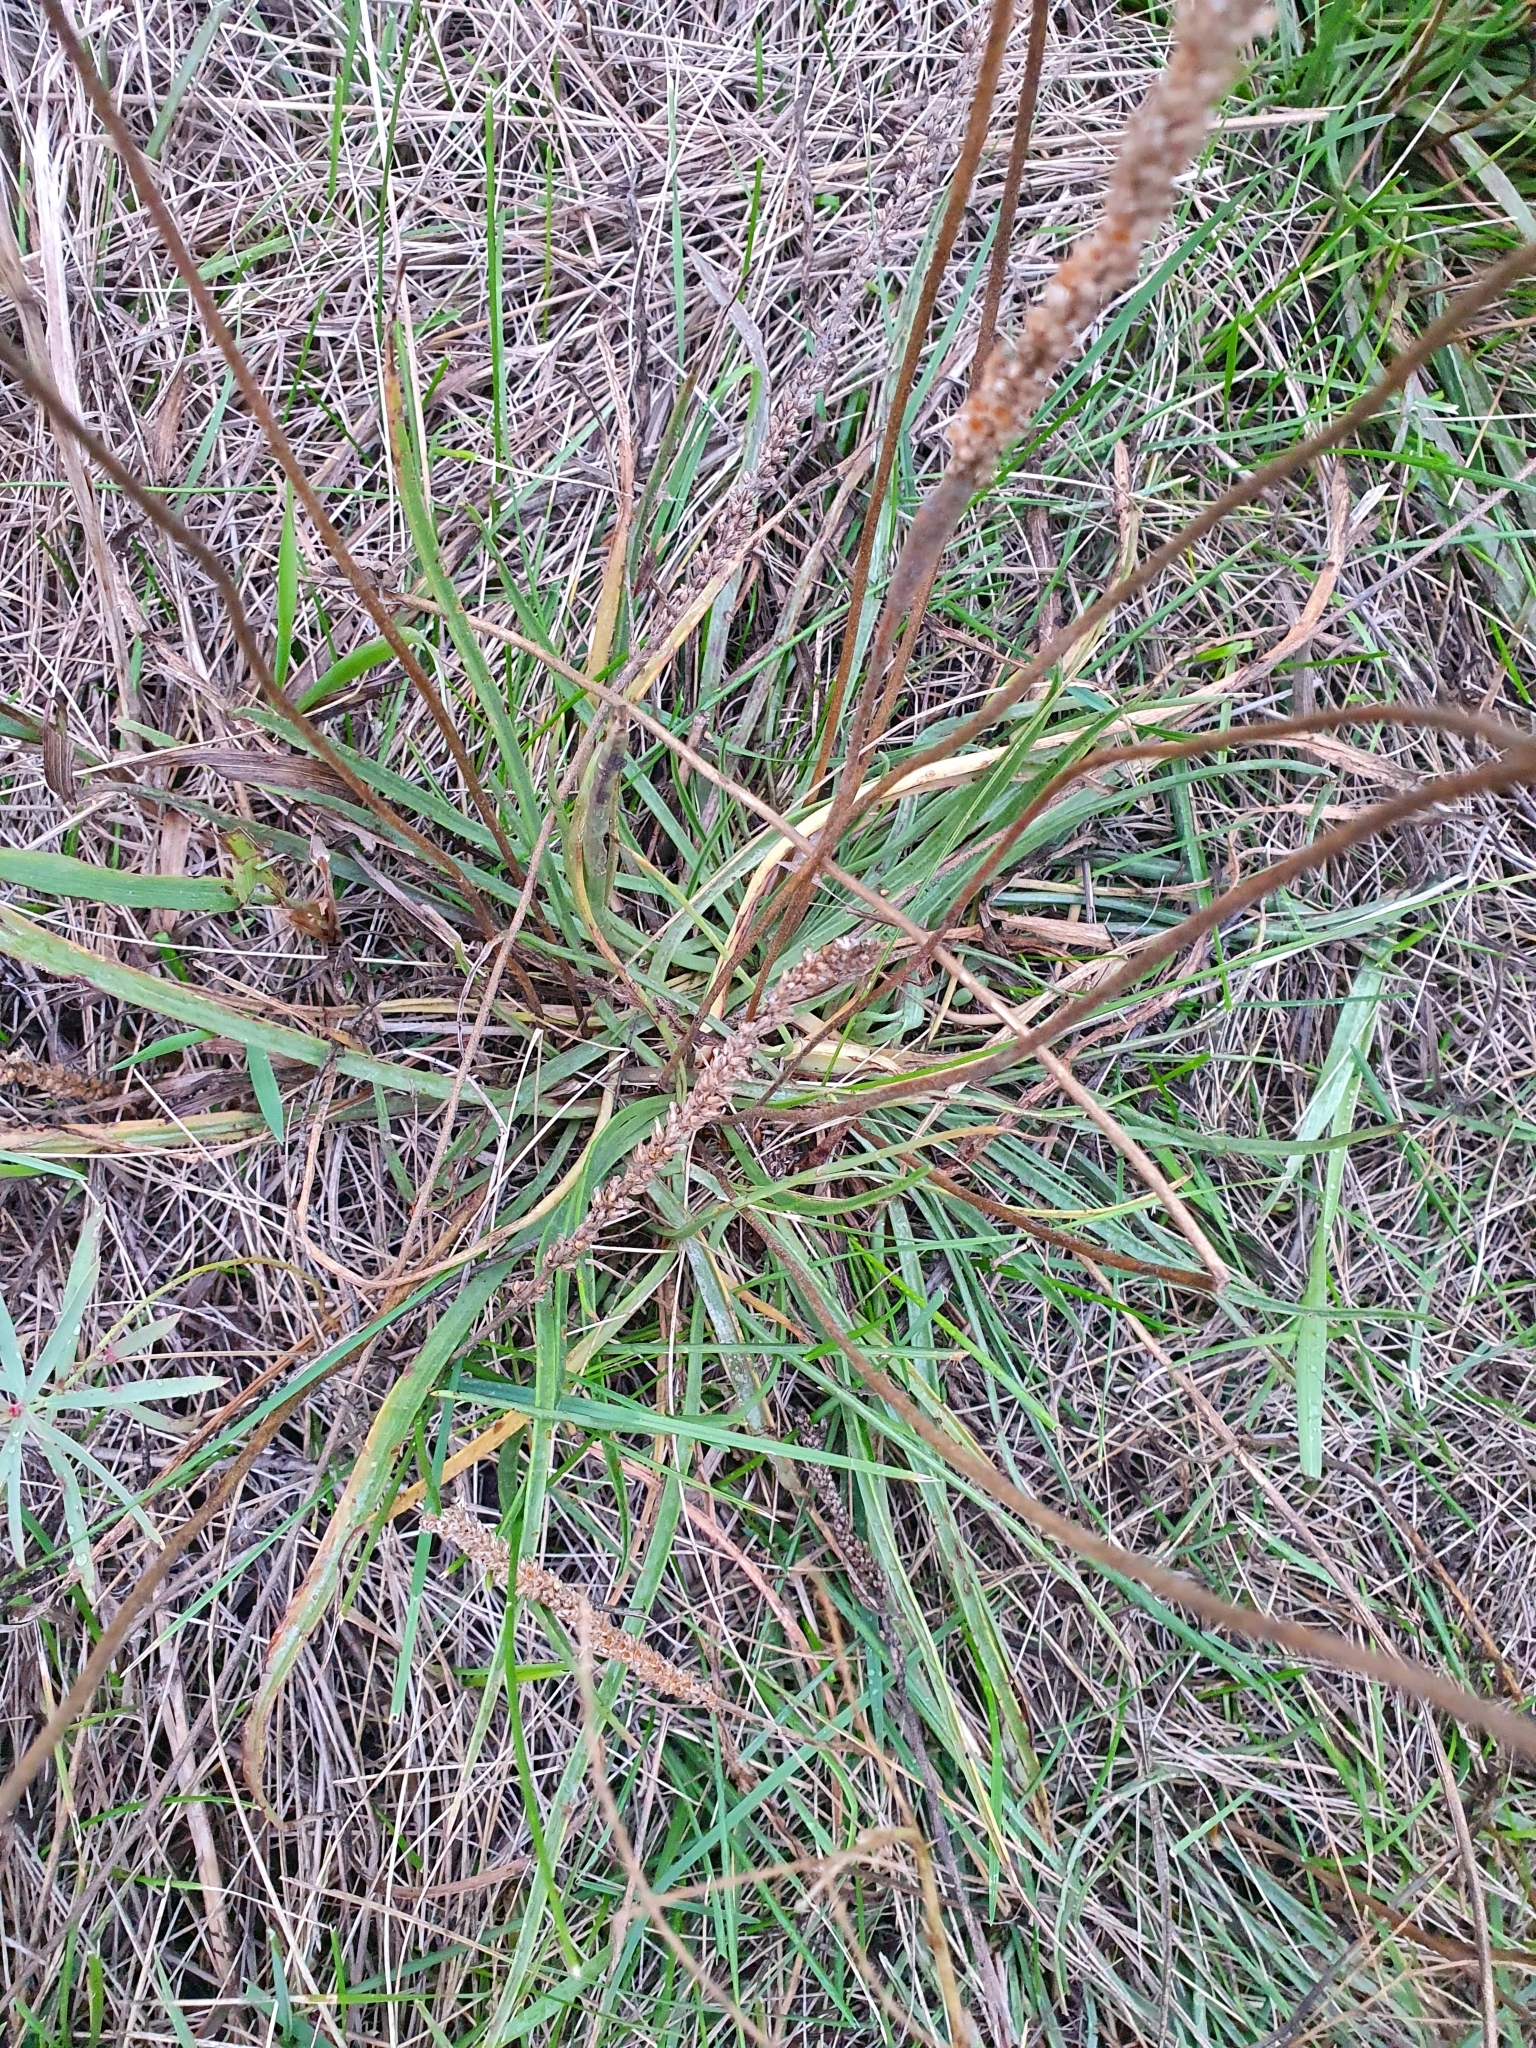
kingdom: Plantae
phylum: Tracheophyta
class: Magnoliopsida
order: Lamiales
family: Plantaginaceae
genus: Plantago
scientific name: Plantago salsa
